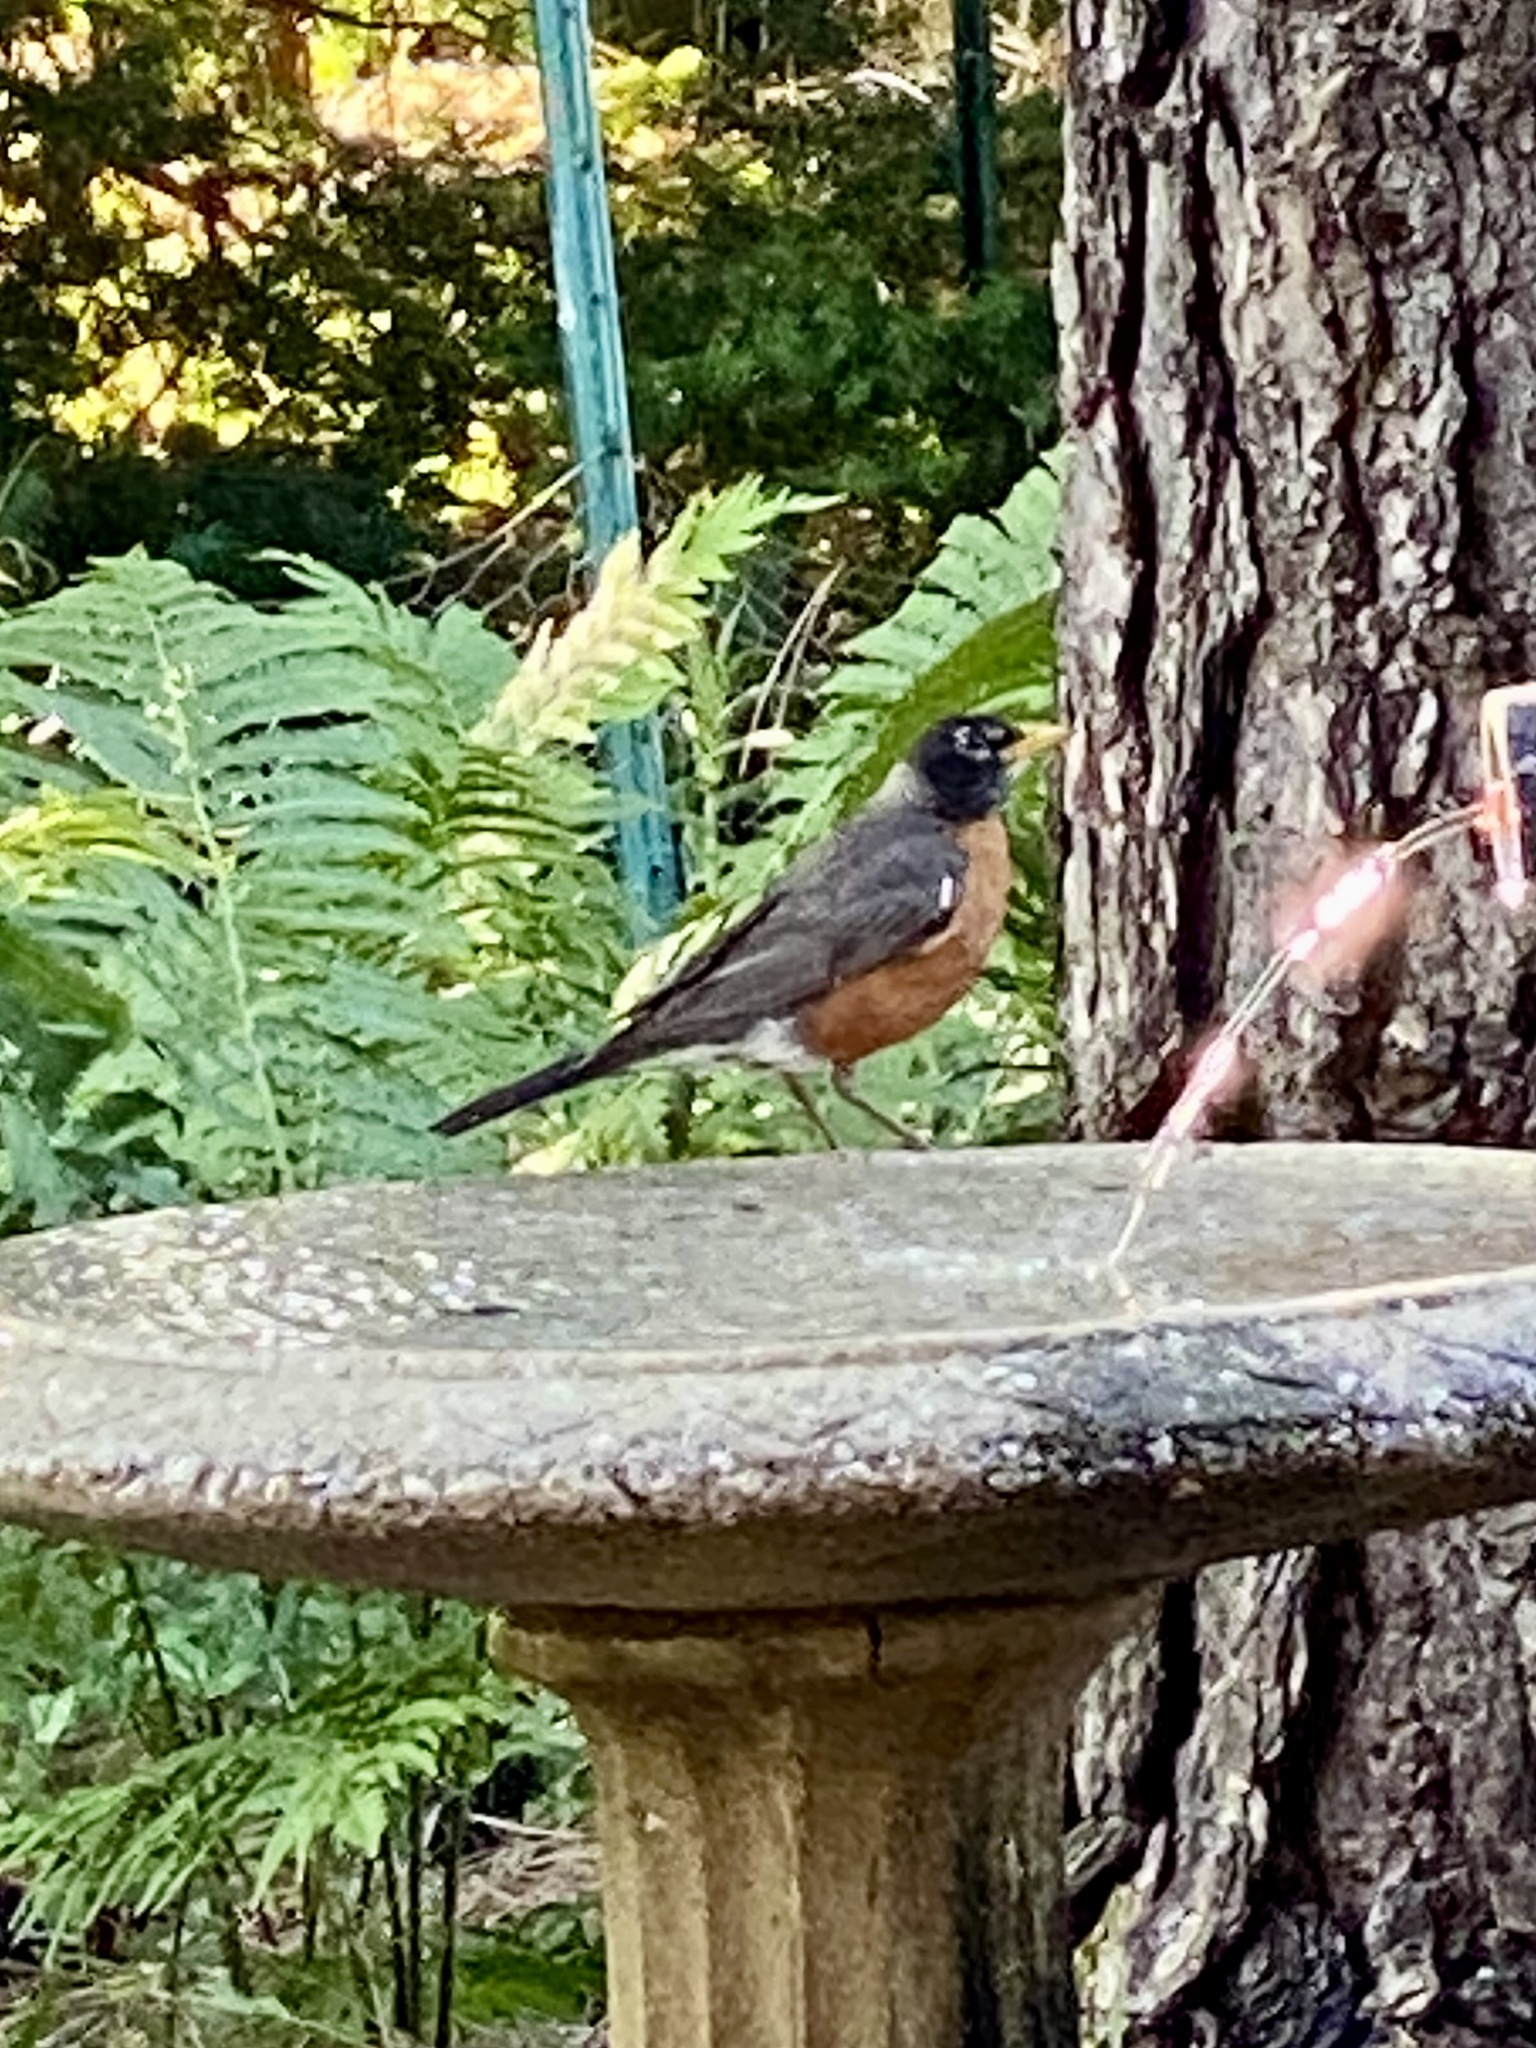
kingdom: Animalia
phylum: Chordata
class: Aves
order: Passeriformes
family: Turdidae
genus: Turdus
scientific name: Turdus migratorius
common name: American robin
